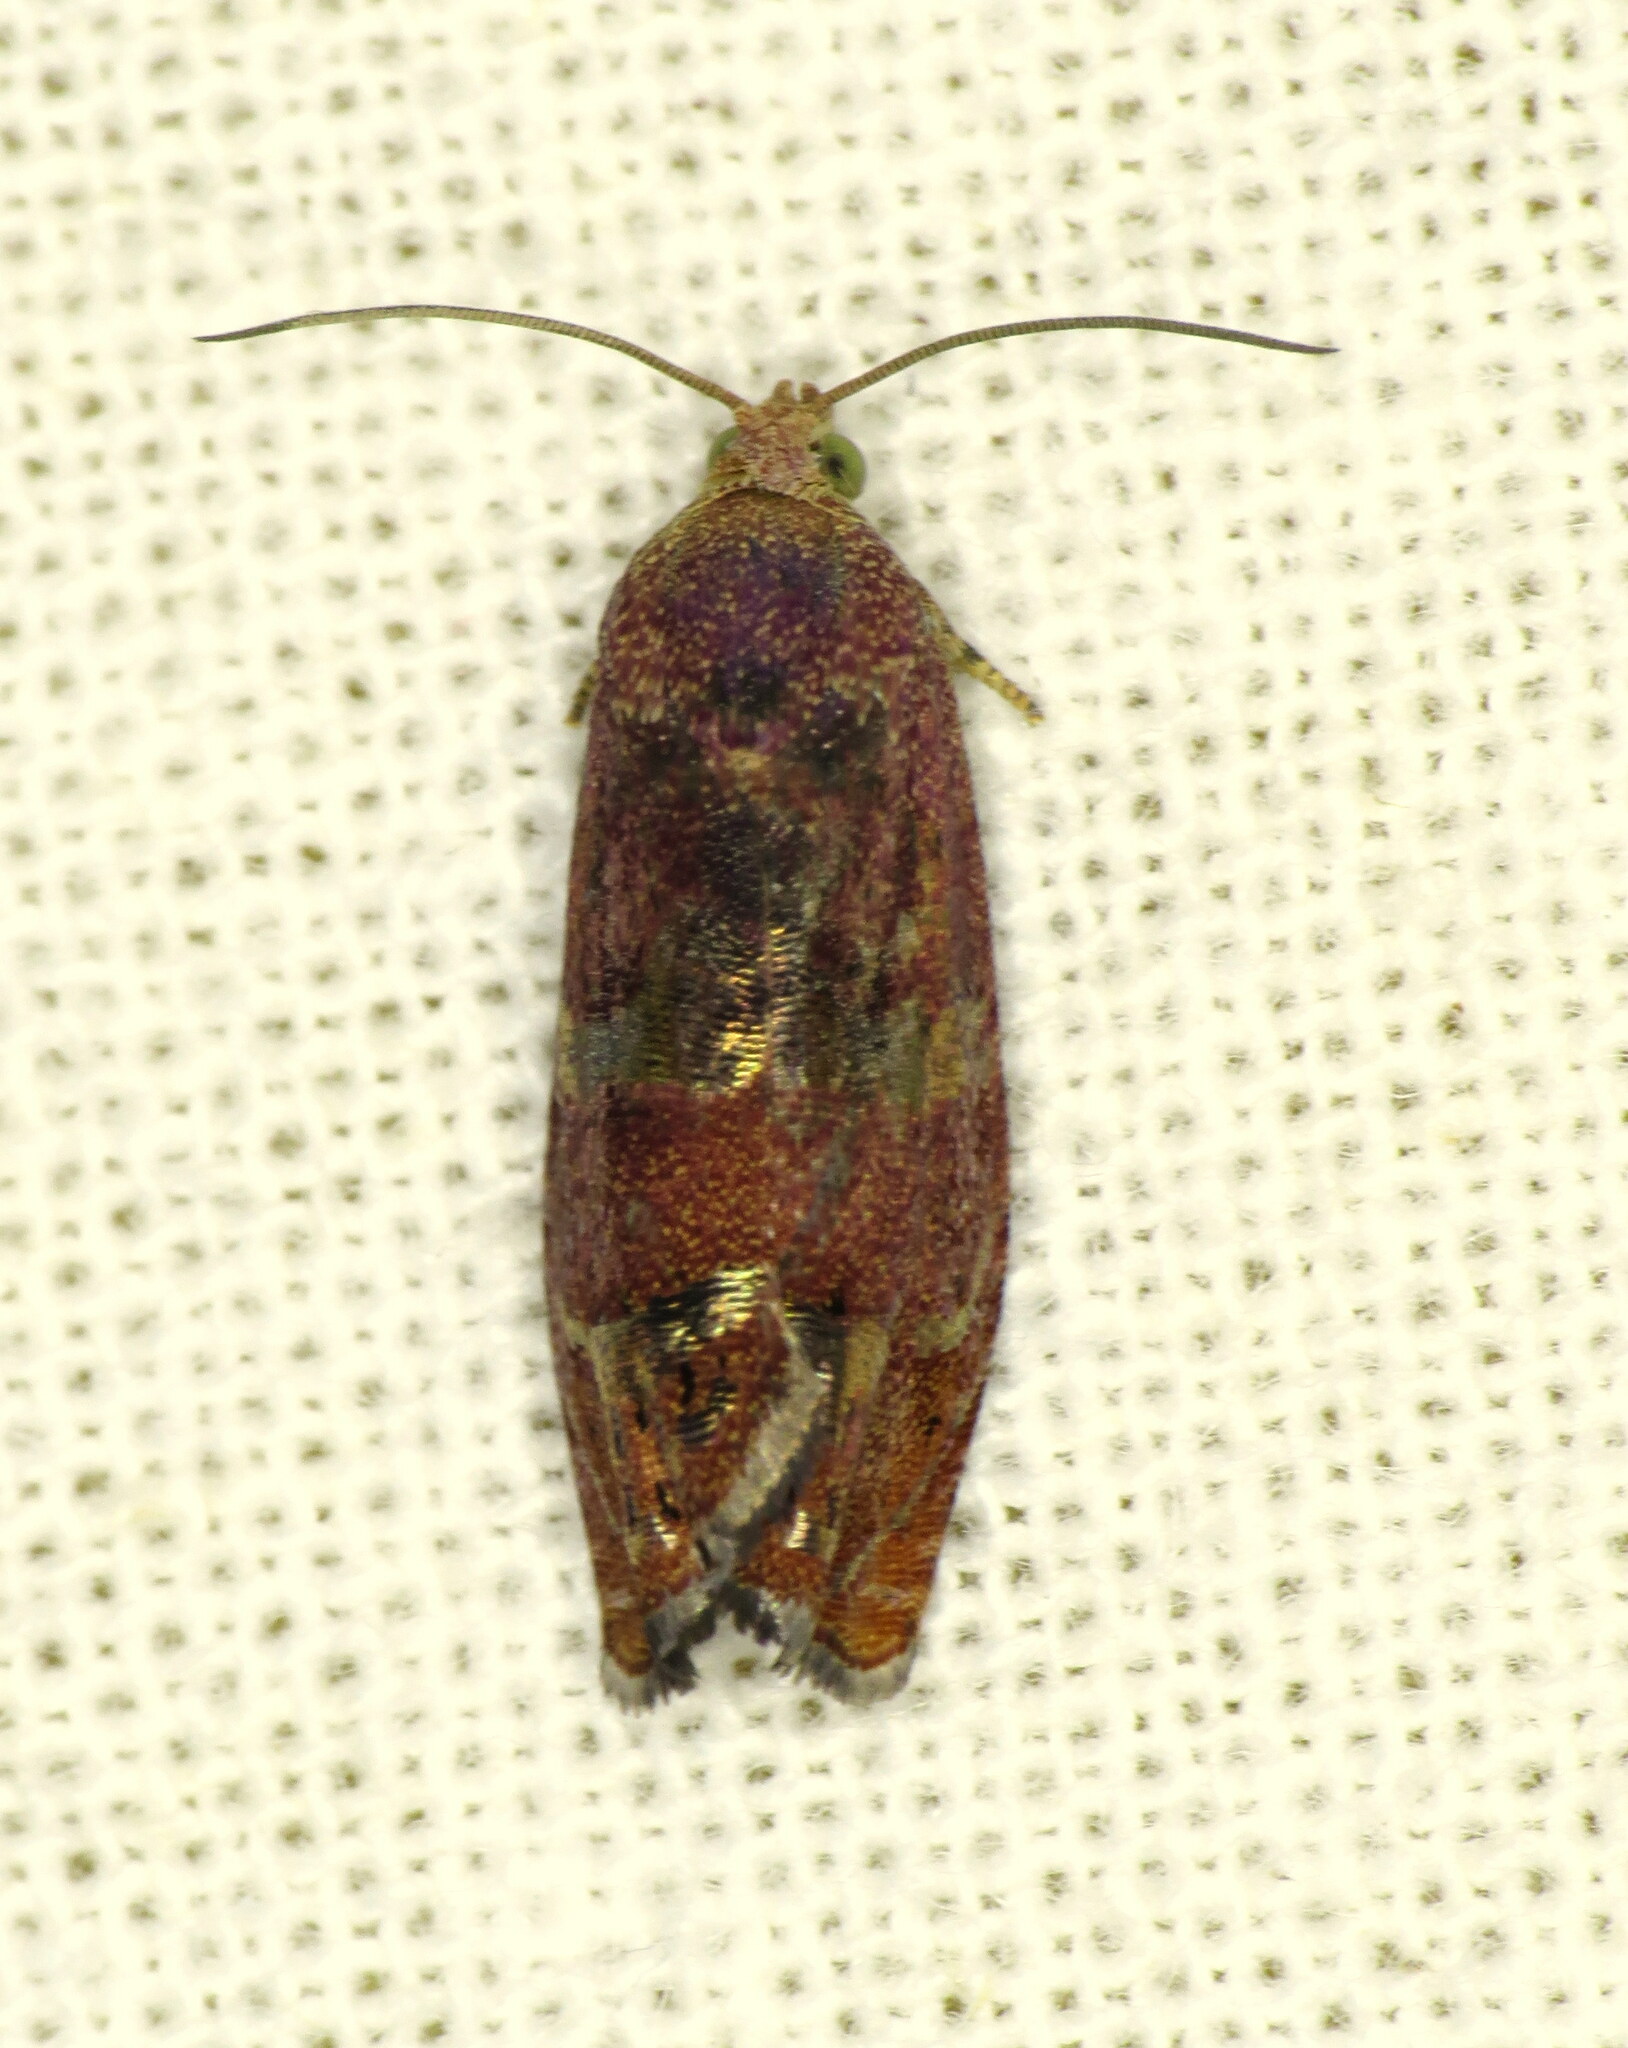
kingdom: Animalia
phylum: Arthropoda
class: Insecta
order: Lepidoptera
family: Tortricidae
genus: Cydia
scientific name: Cydia latiferreana
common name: Filbertworm moth
